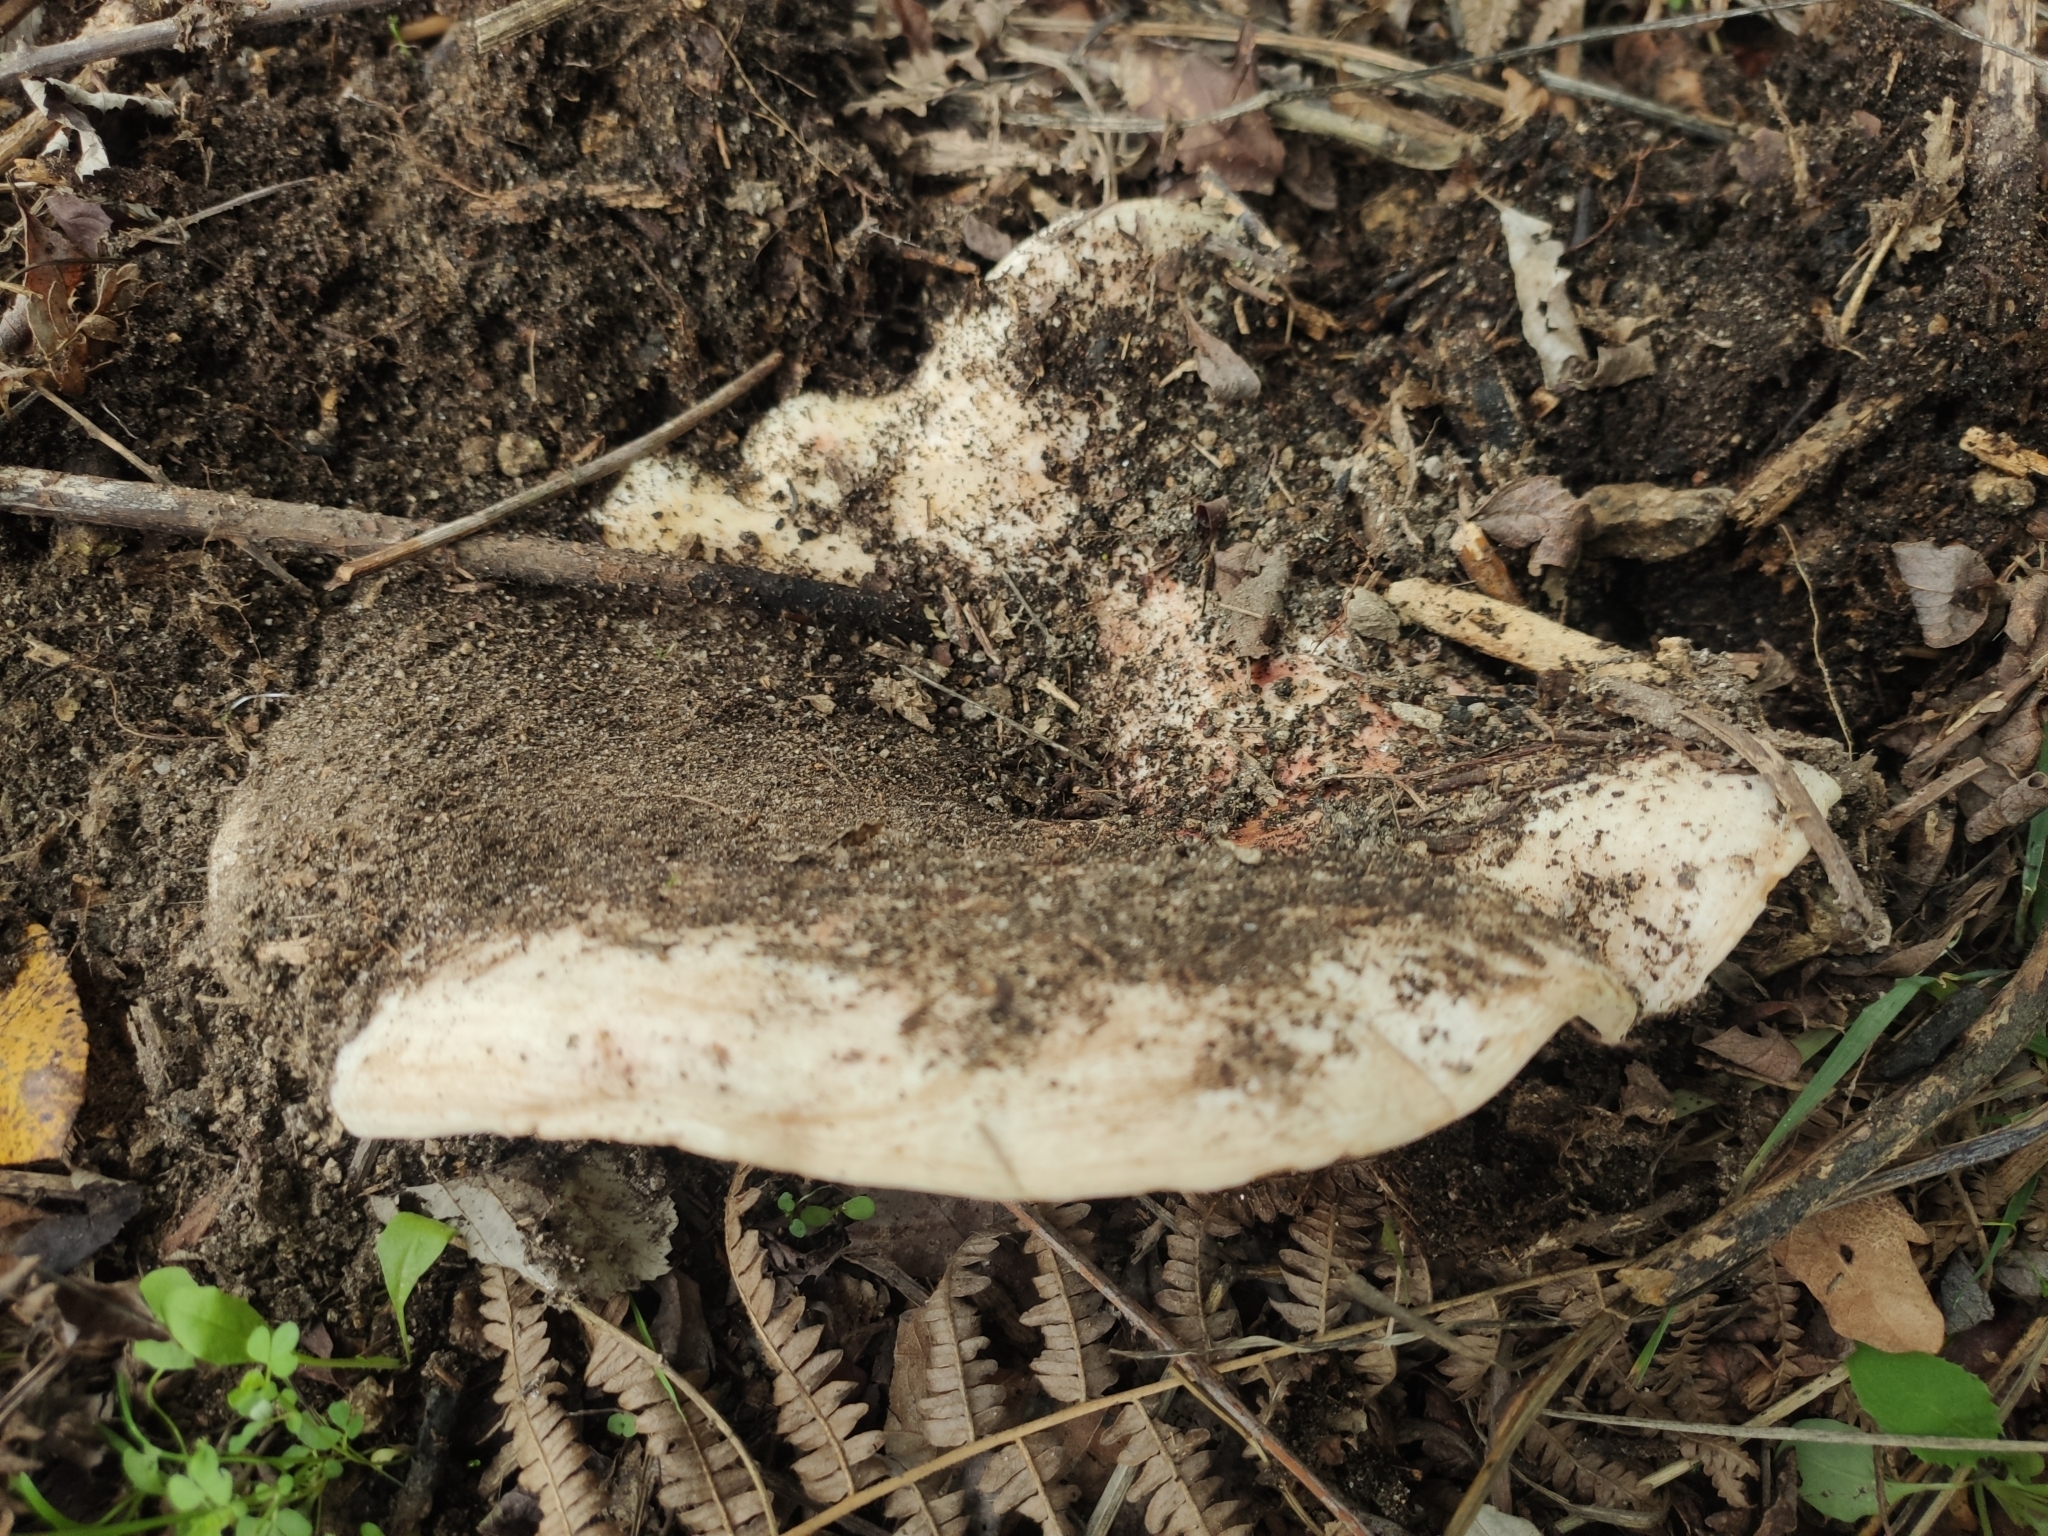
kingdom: Fungi
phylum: Basidiomycota
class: Agaricomycetes
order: Russulales
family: Russulaceae
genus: Lactarius
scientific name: Lactarius controversus
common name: Blushing milkcap
